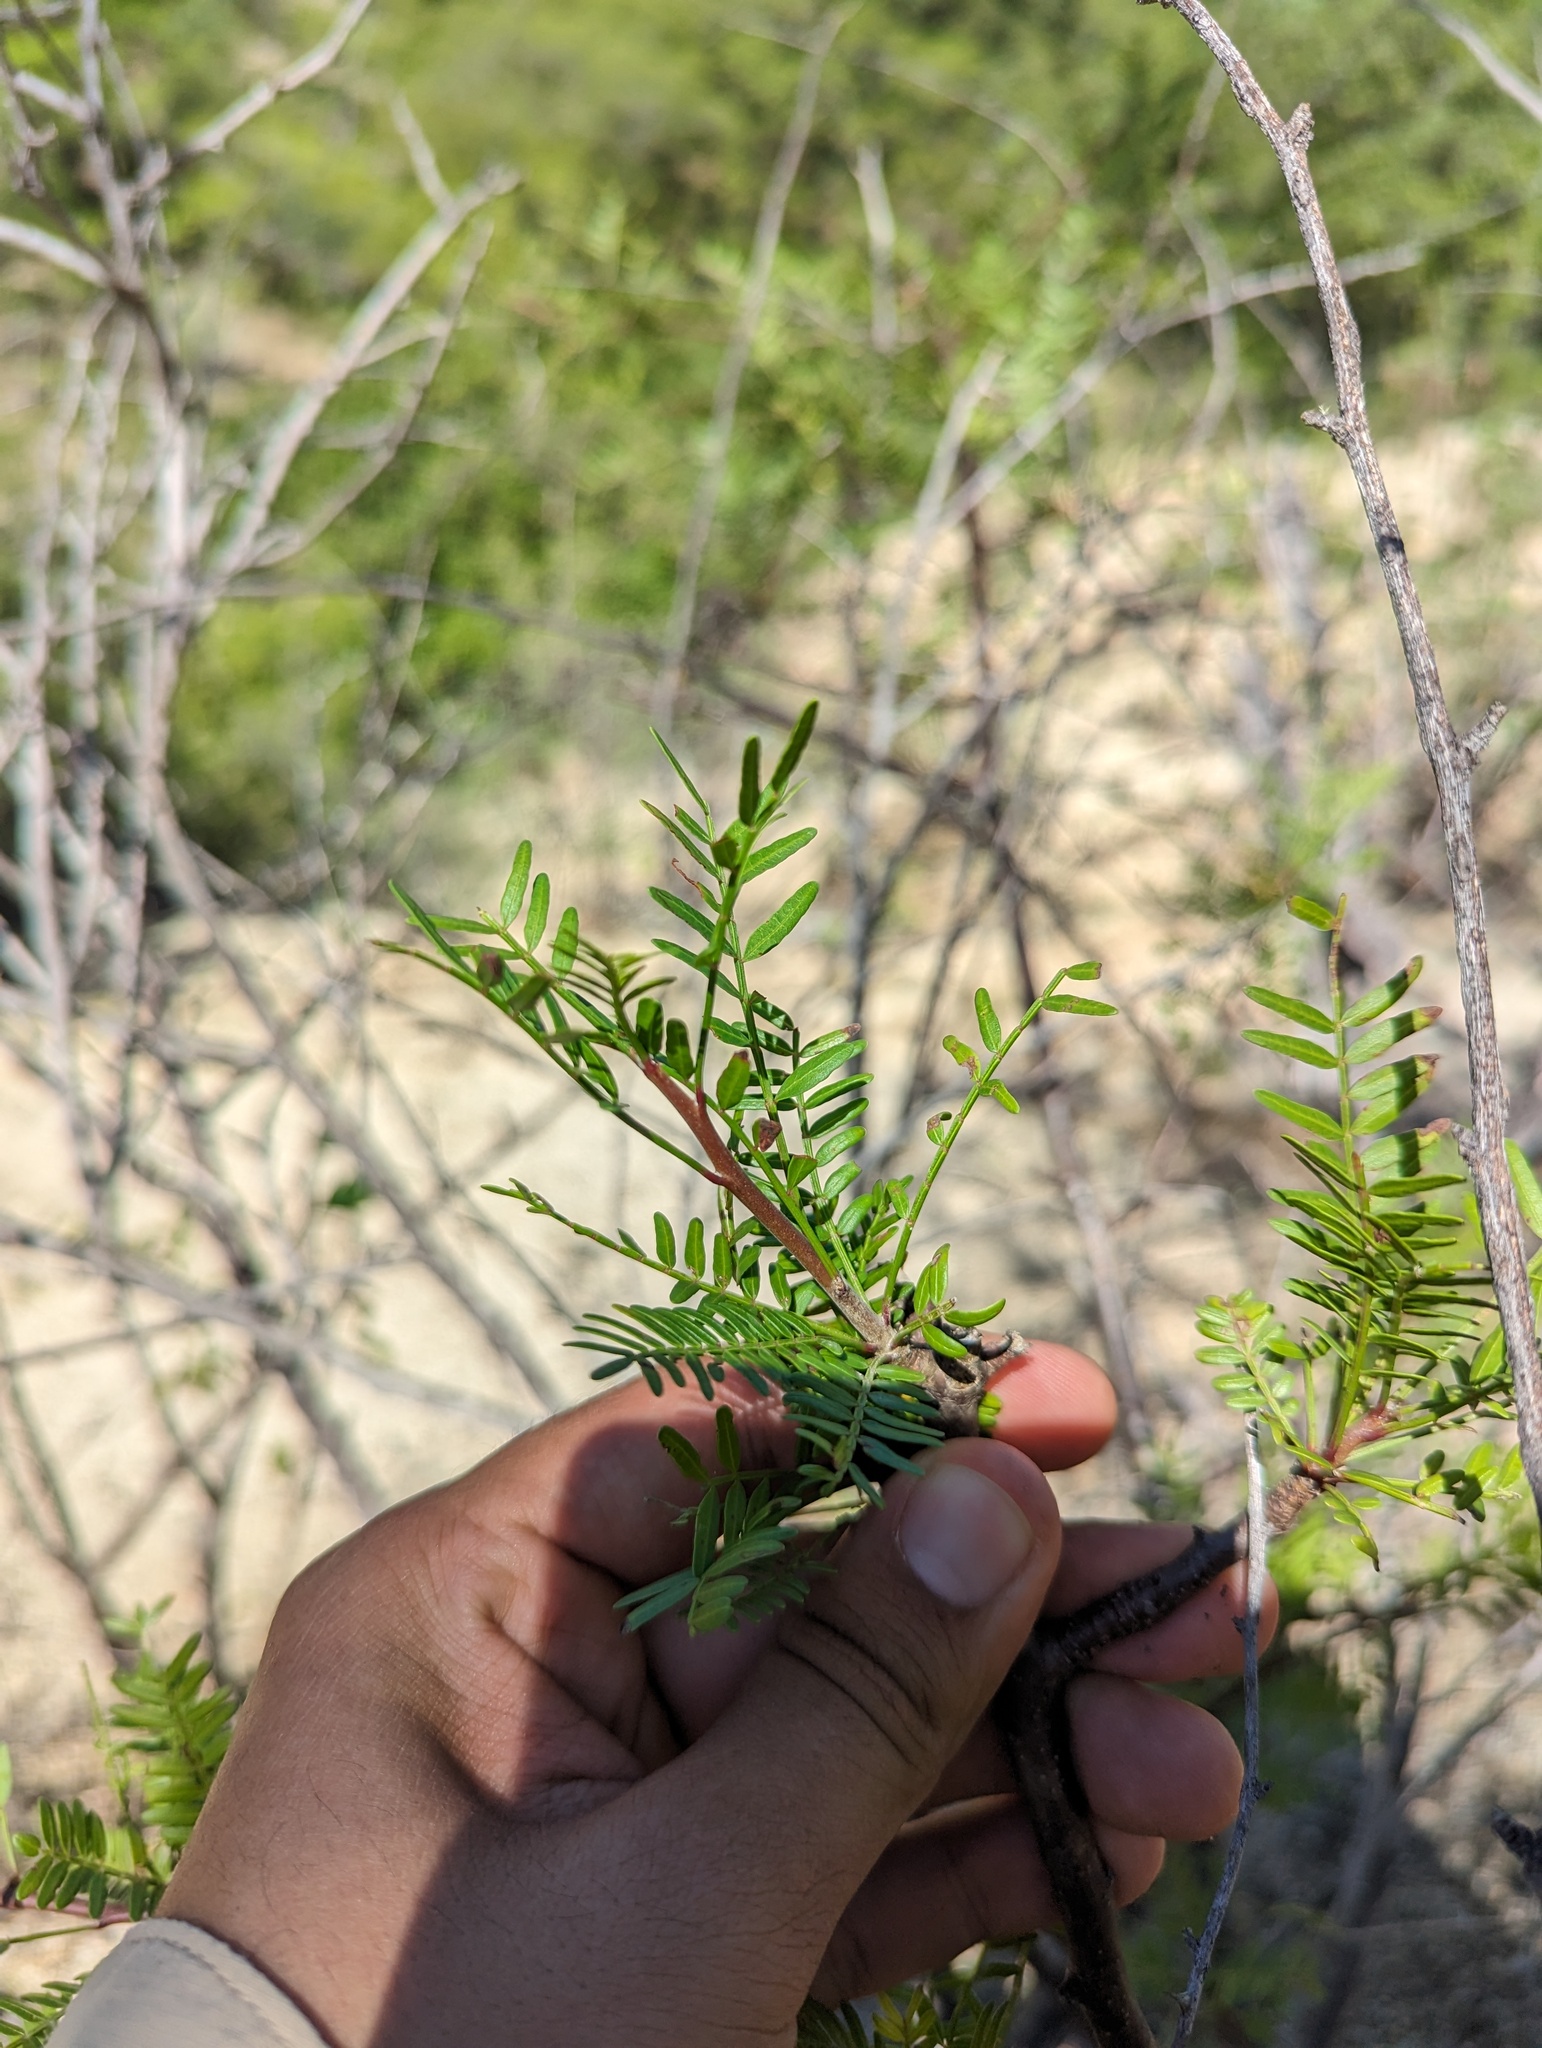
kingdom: Plantae
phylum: Tracheophyta
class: Magnoliopsida
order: Sapindales
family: Burseraceae
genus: Bursera
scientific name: Bursera microphylla
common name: Elephant tree
